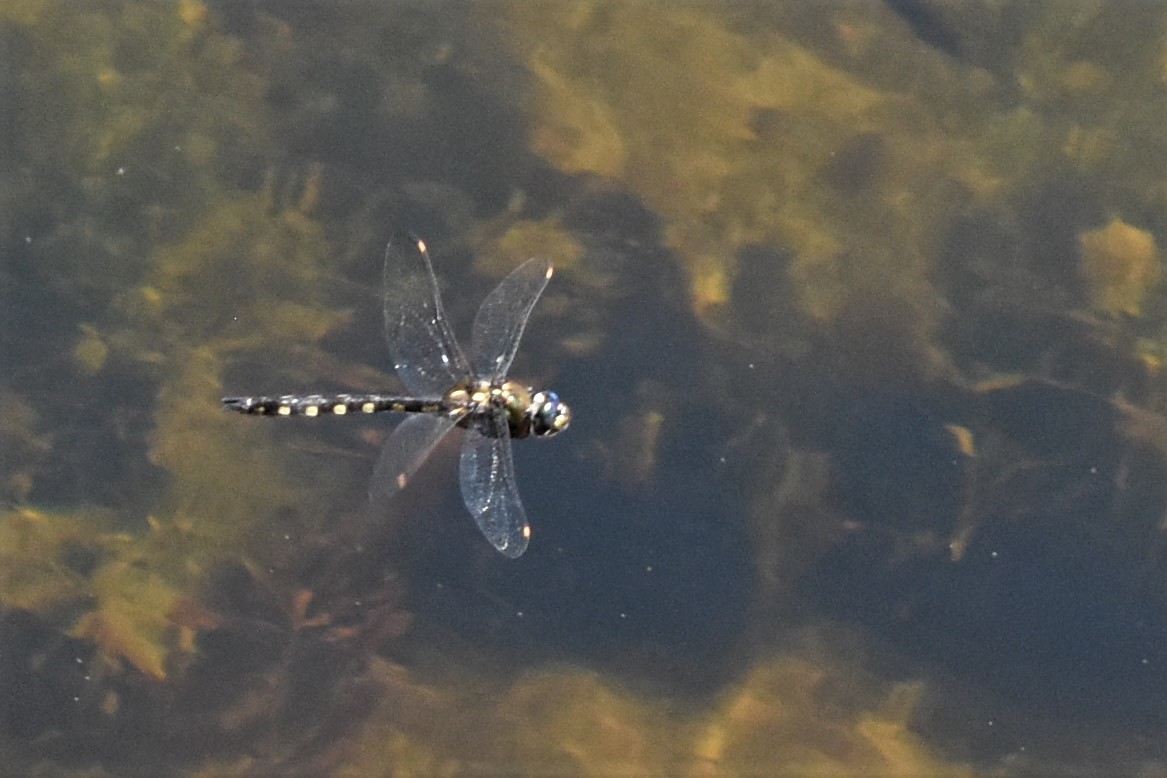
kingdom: Animalia
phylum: Arthropoda
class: Insecta
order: Odonata
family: Corduliidae
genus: Procordulia
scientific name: Procordulia grayi
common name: Yellow spotted dragonfly
